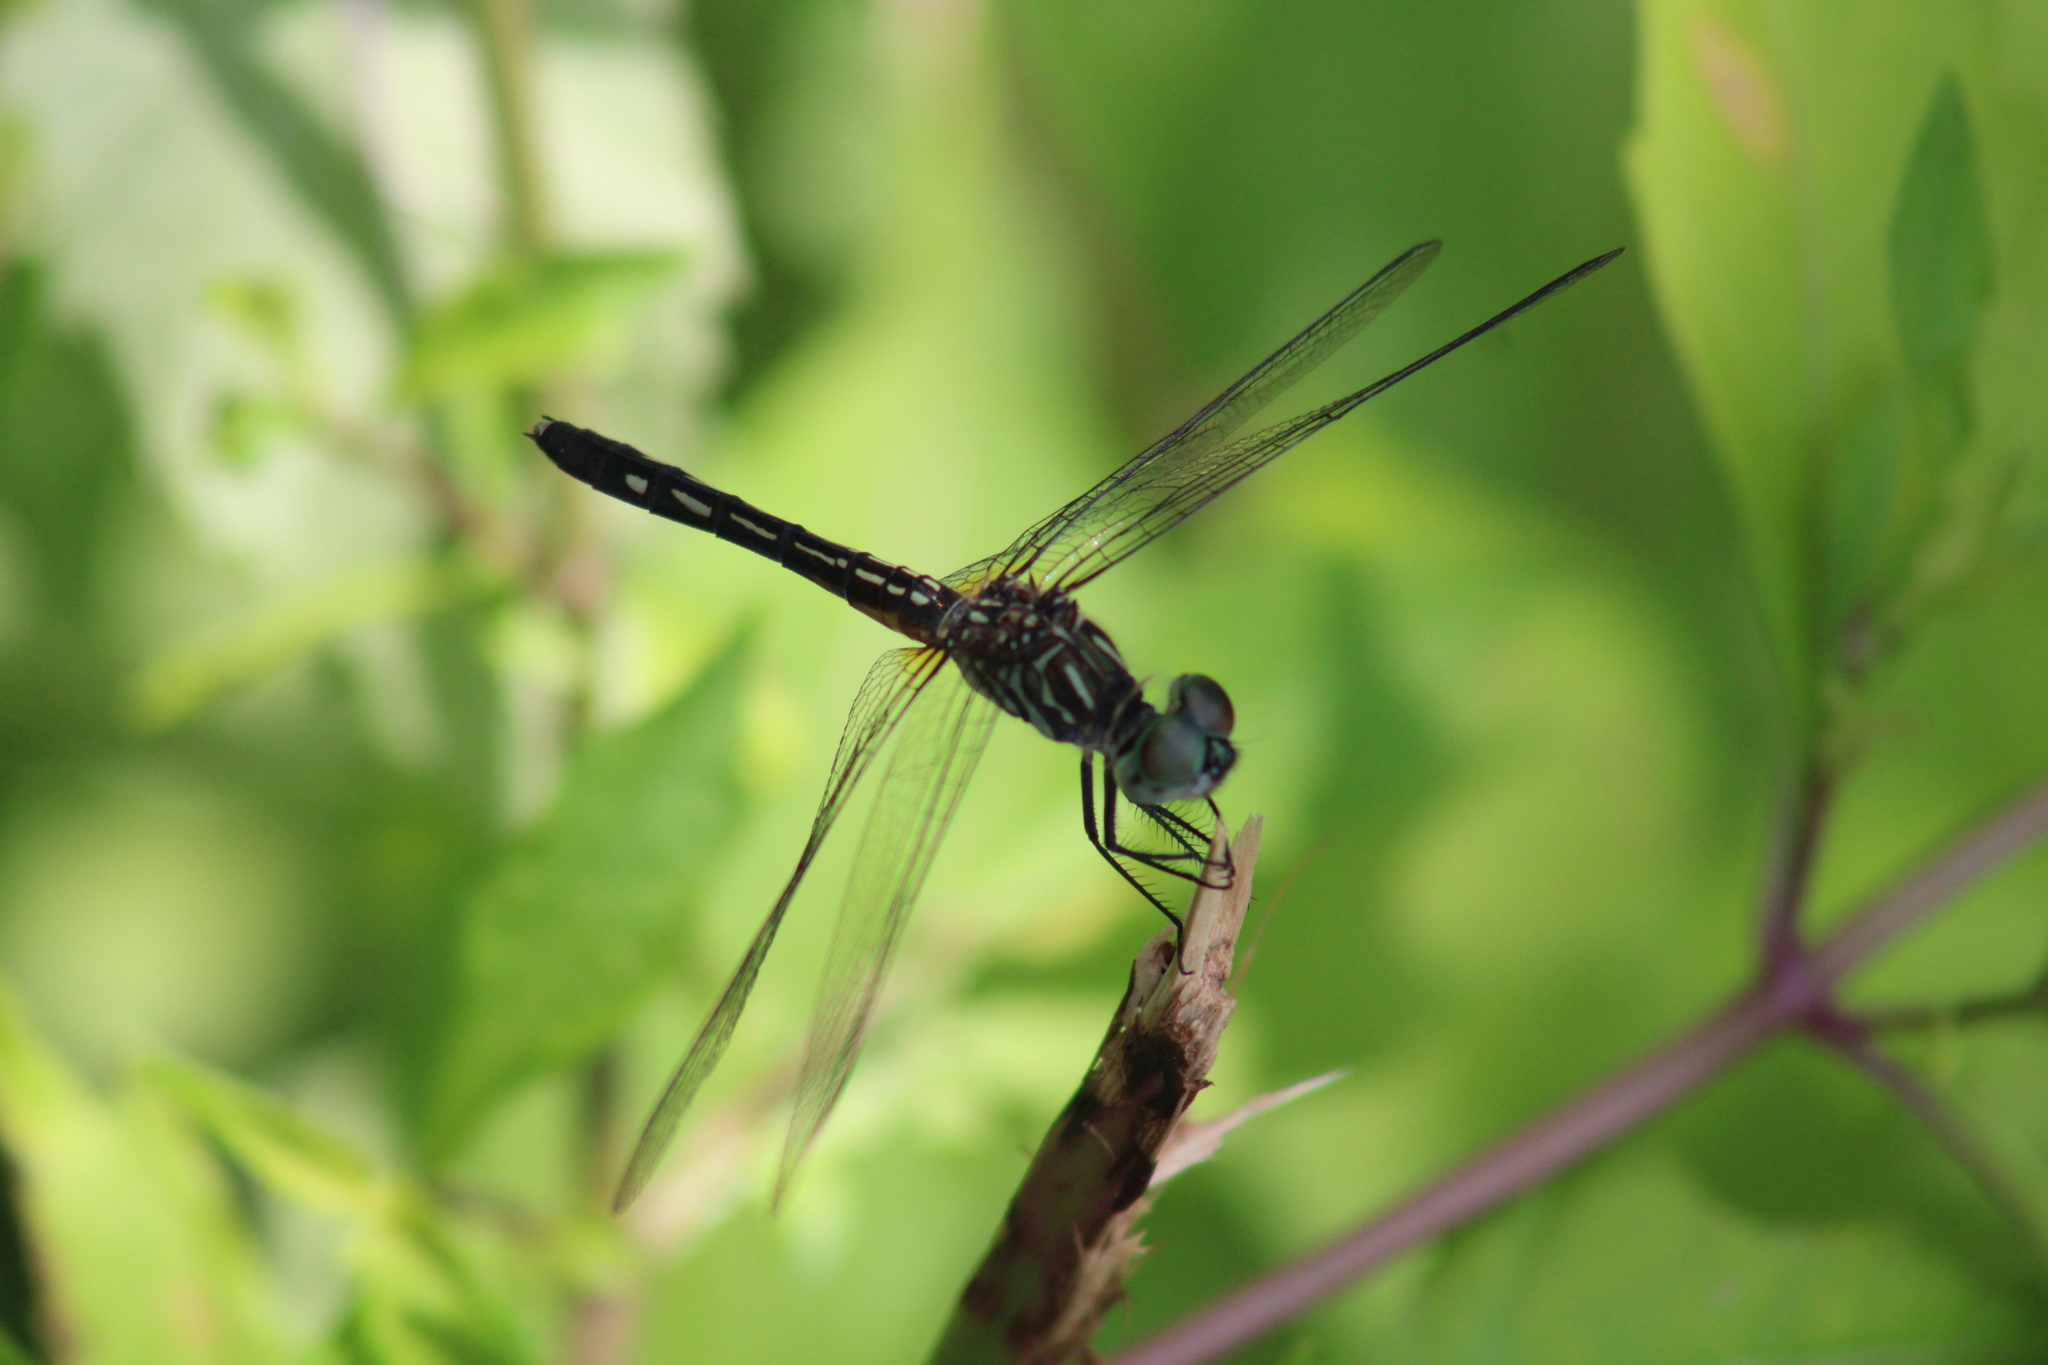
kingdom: Animalia
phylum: Arthropoda
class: Insecta
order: Odonata
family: Libellulidae
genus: Pachydiplax
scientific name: Pachydiplax longipennis
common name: Blue dasher
